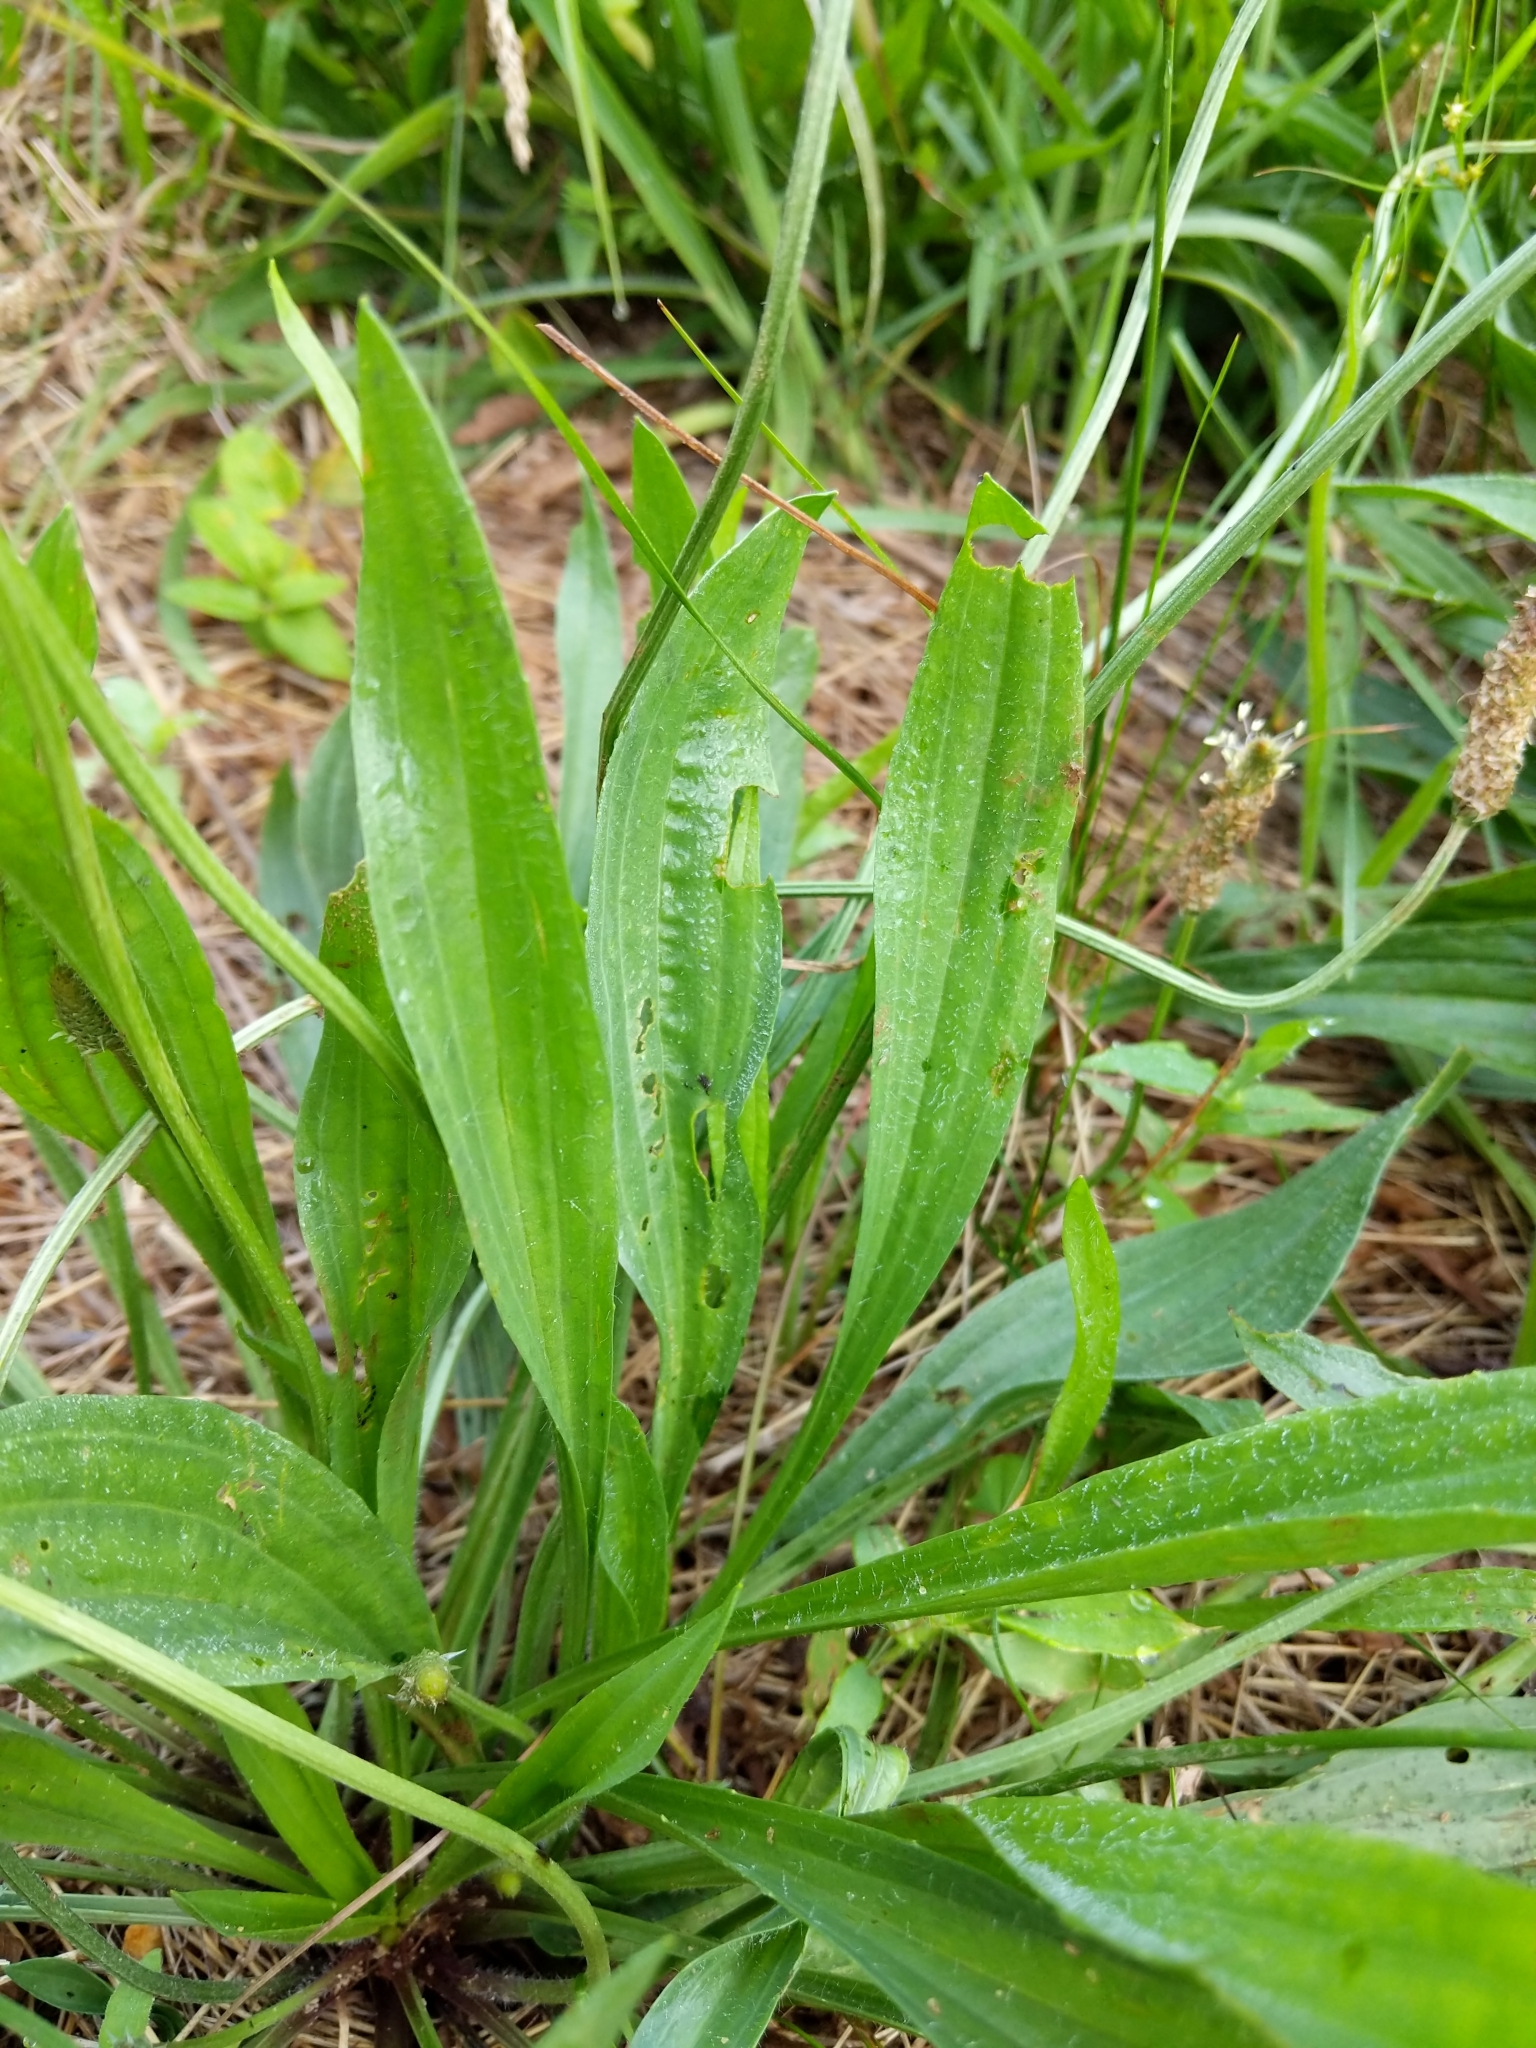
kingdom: Plantae
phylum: Tracheophyta
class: Magnoliopsida
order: Lamiales
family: Plantaginaceae
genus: Plantago
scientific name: Plantago lanceolata
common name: Ribwort plantain
